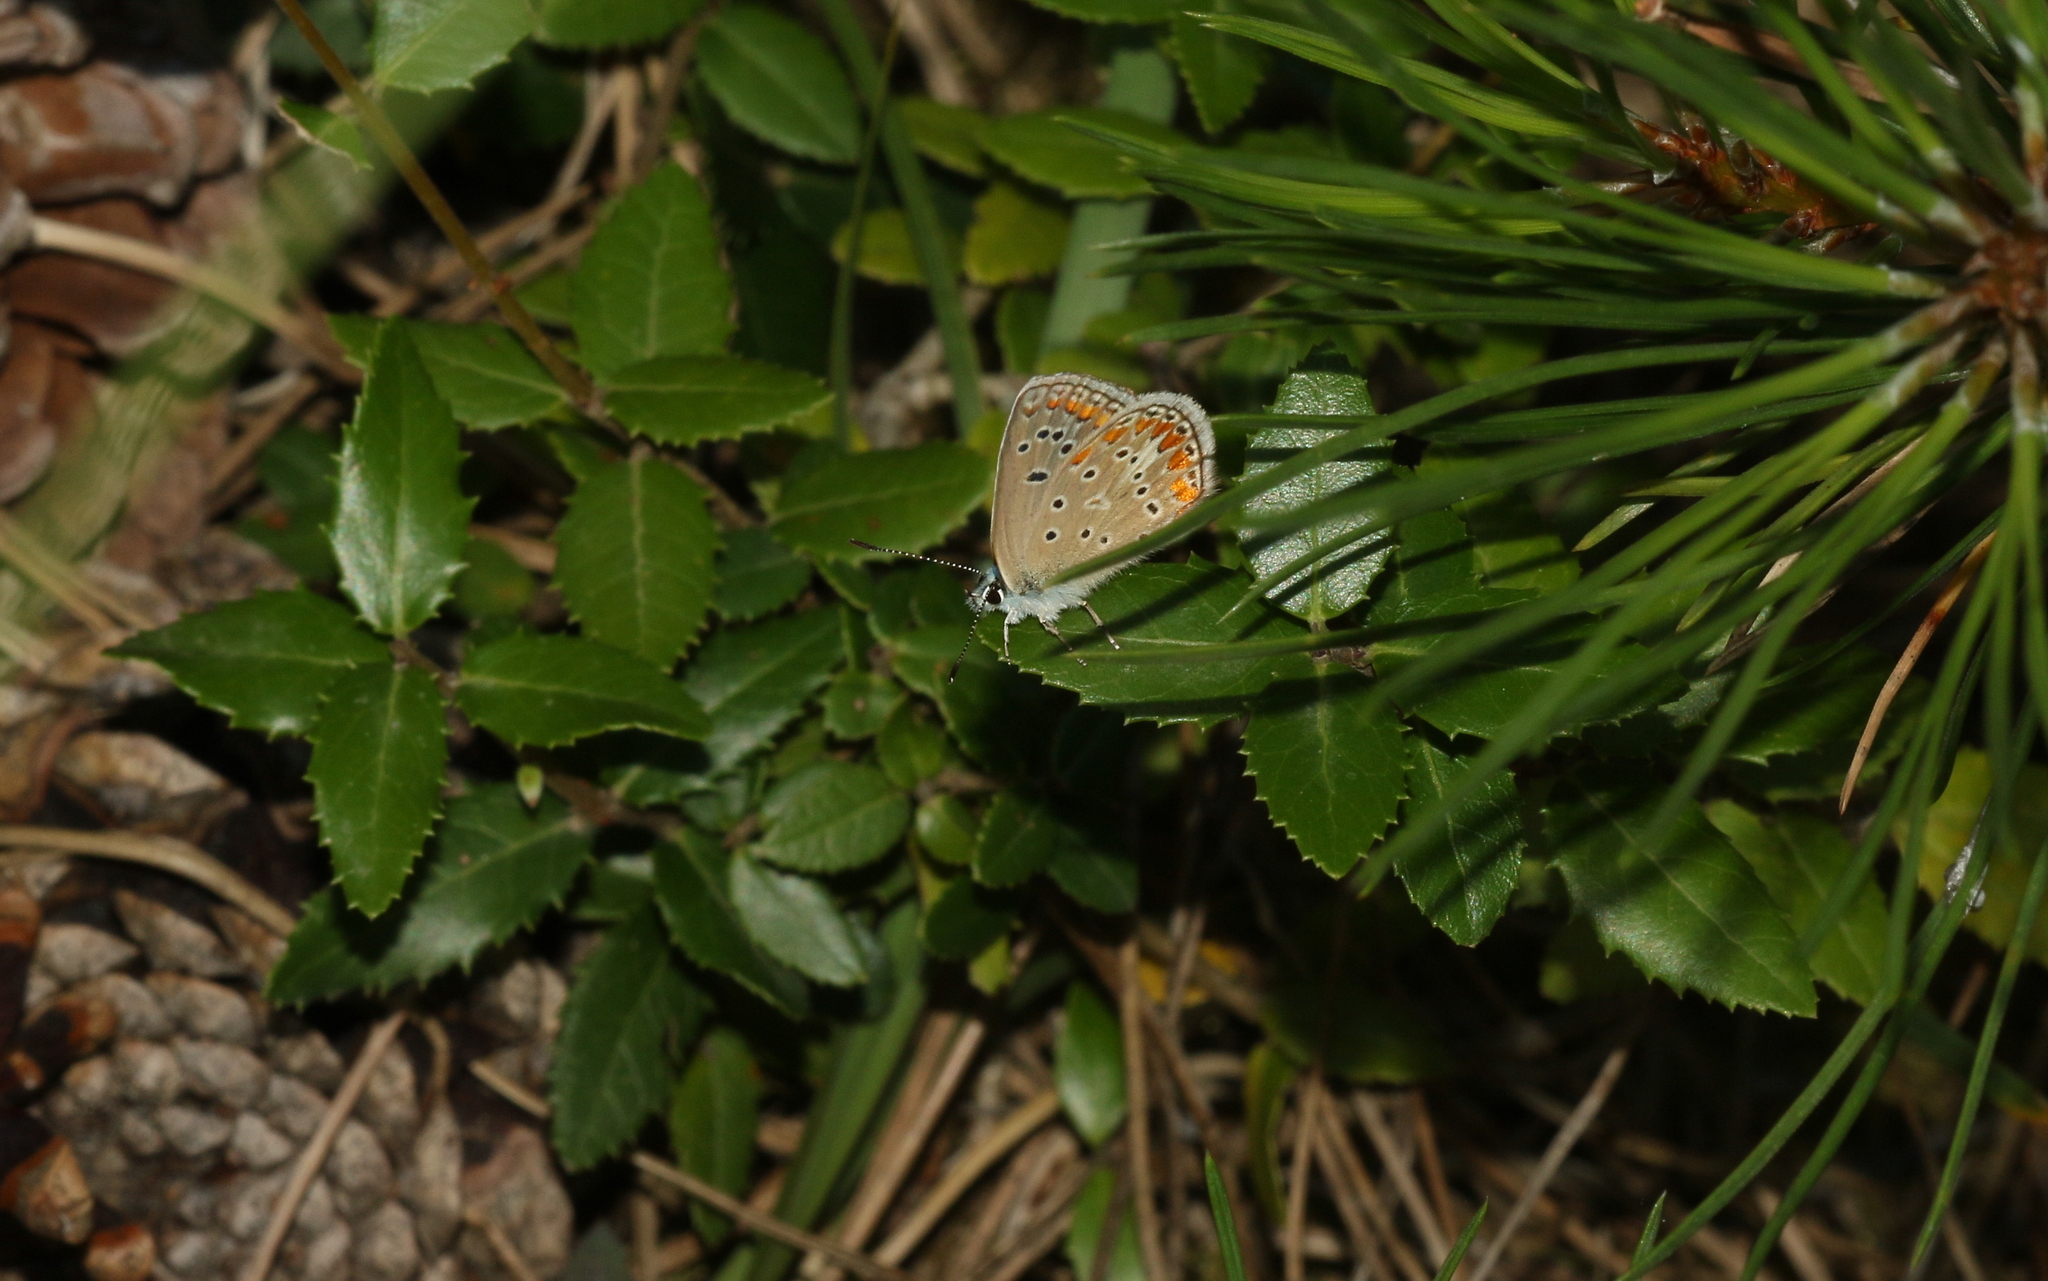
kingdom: Animalia
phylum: Arthropoda
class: Insecta
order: Lepidoptera
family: Lycaenidae
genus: Polyommatus
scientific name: Polyommatus thersites
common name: Chapman's blue
